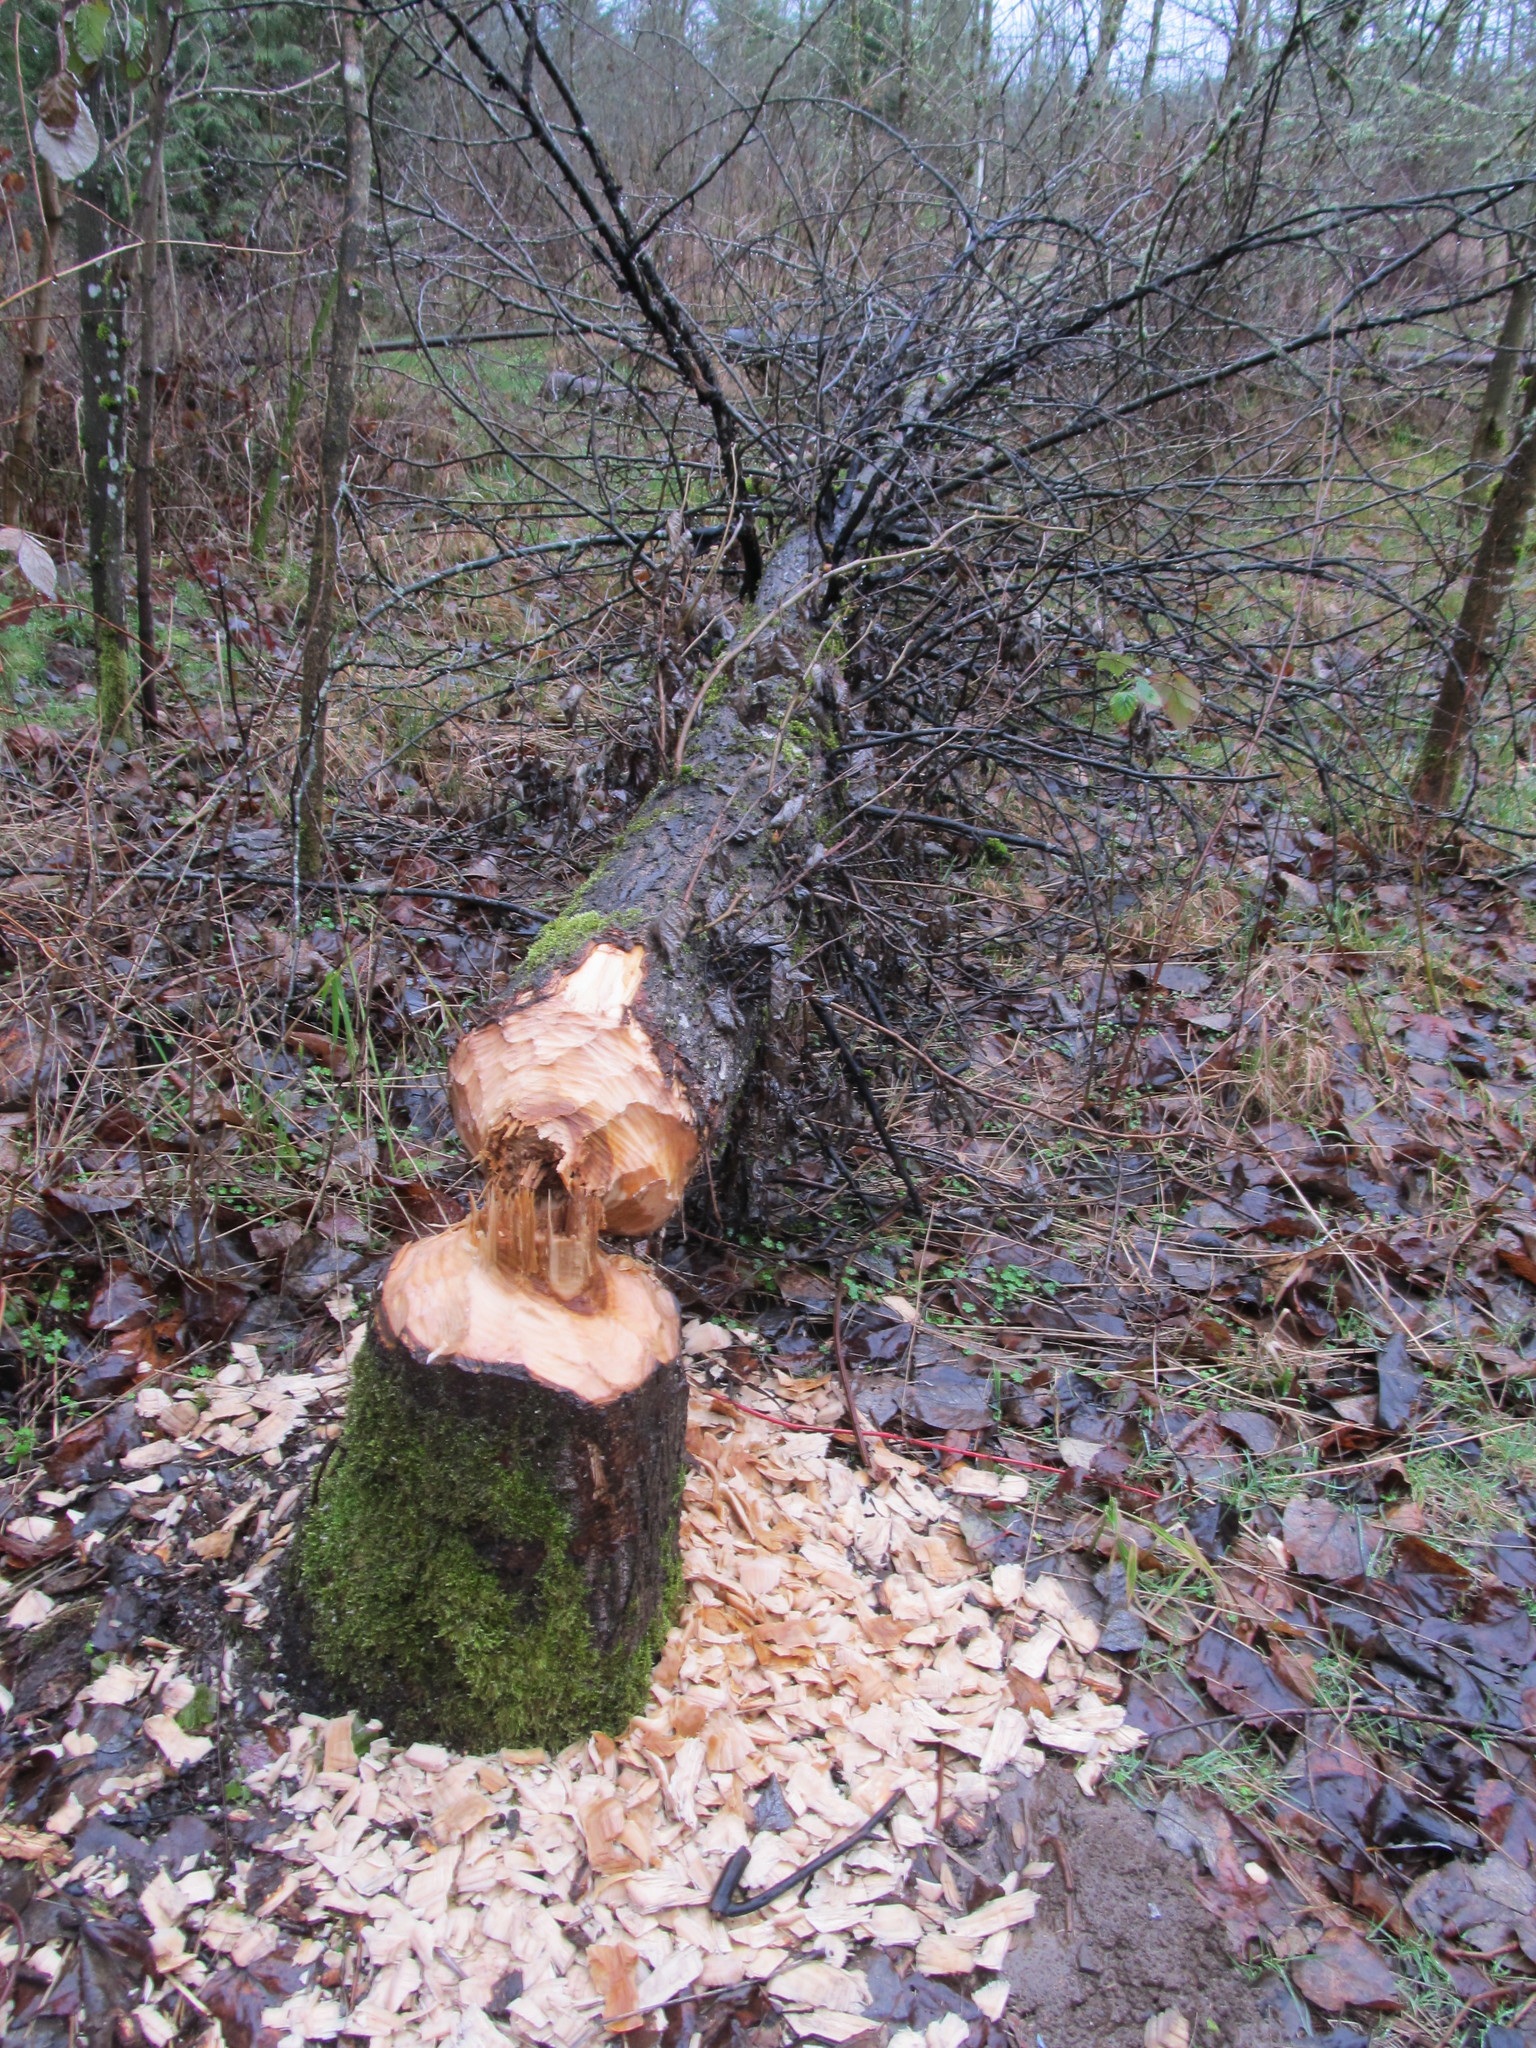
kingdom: Animalia
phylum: Chordata
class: Mammalia
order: Rodentia
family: Castoridae
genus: Castor
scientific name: Castor canadensis
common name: American beaver
